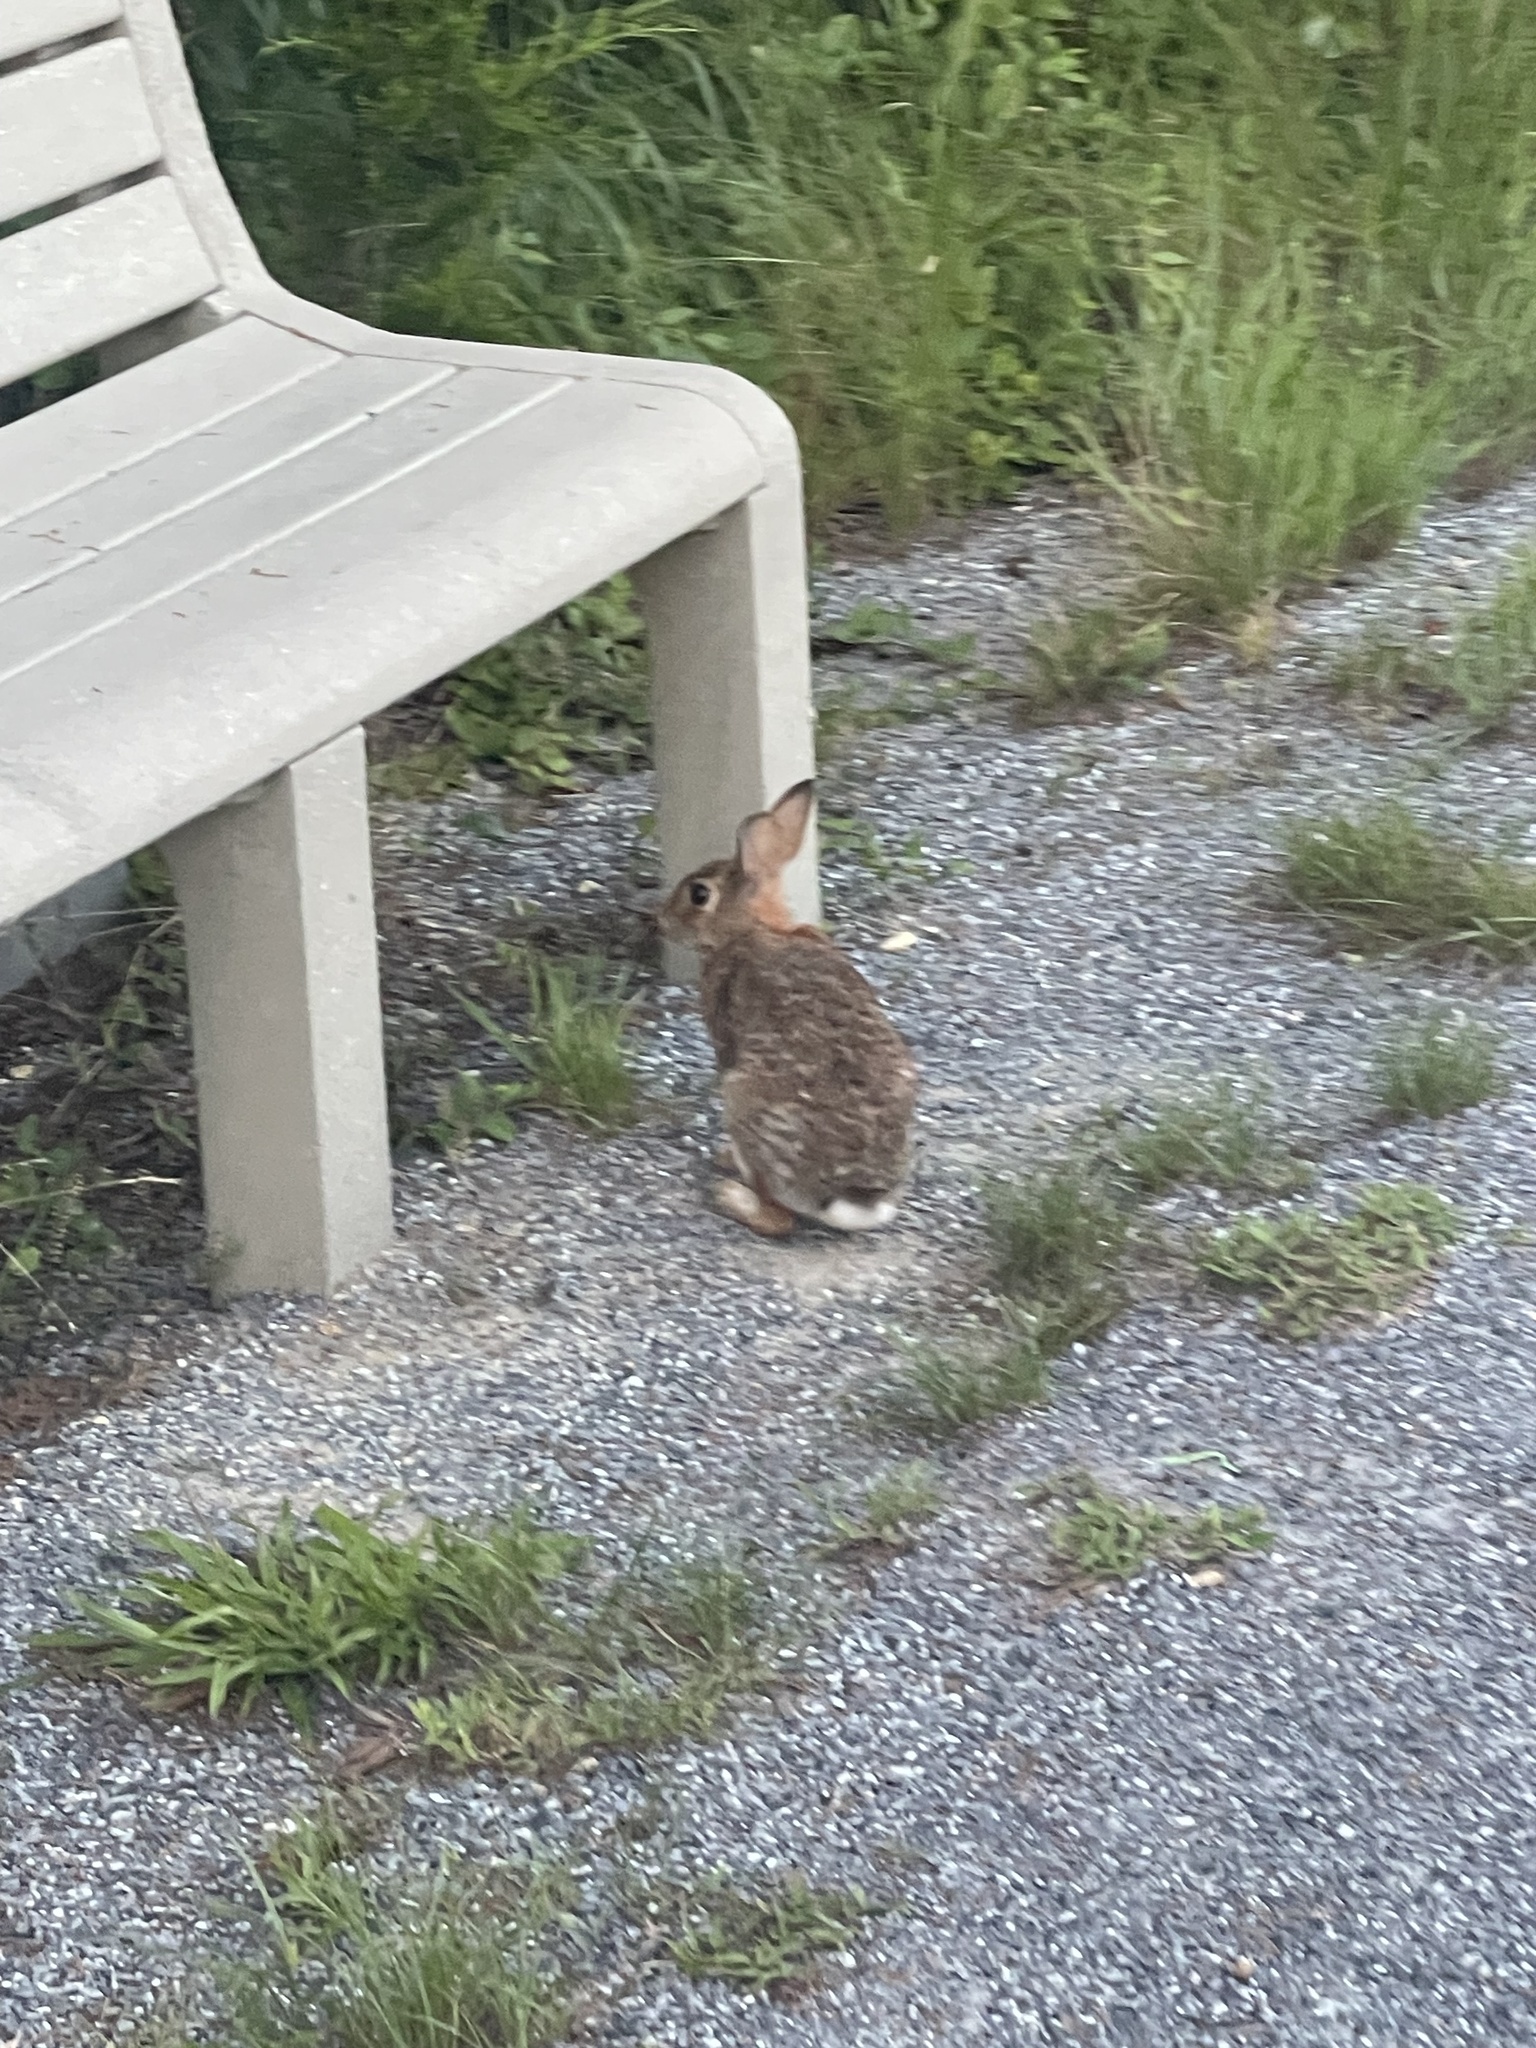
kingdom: Animalia
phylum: Chordata
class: Mammalia
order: Lagomorpha
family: Leporidae
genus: Sylvilagus
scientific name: Sylvilagus floridanus
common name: Eastern cottontail
